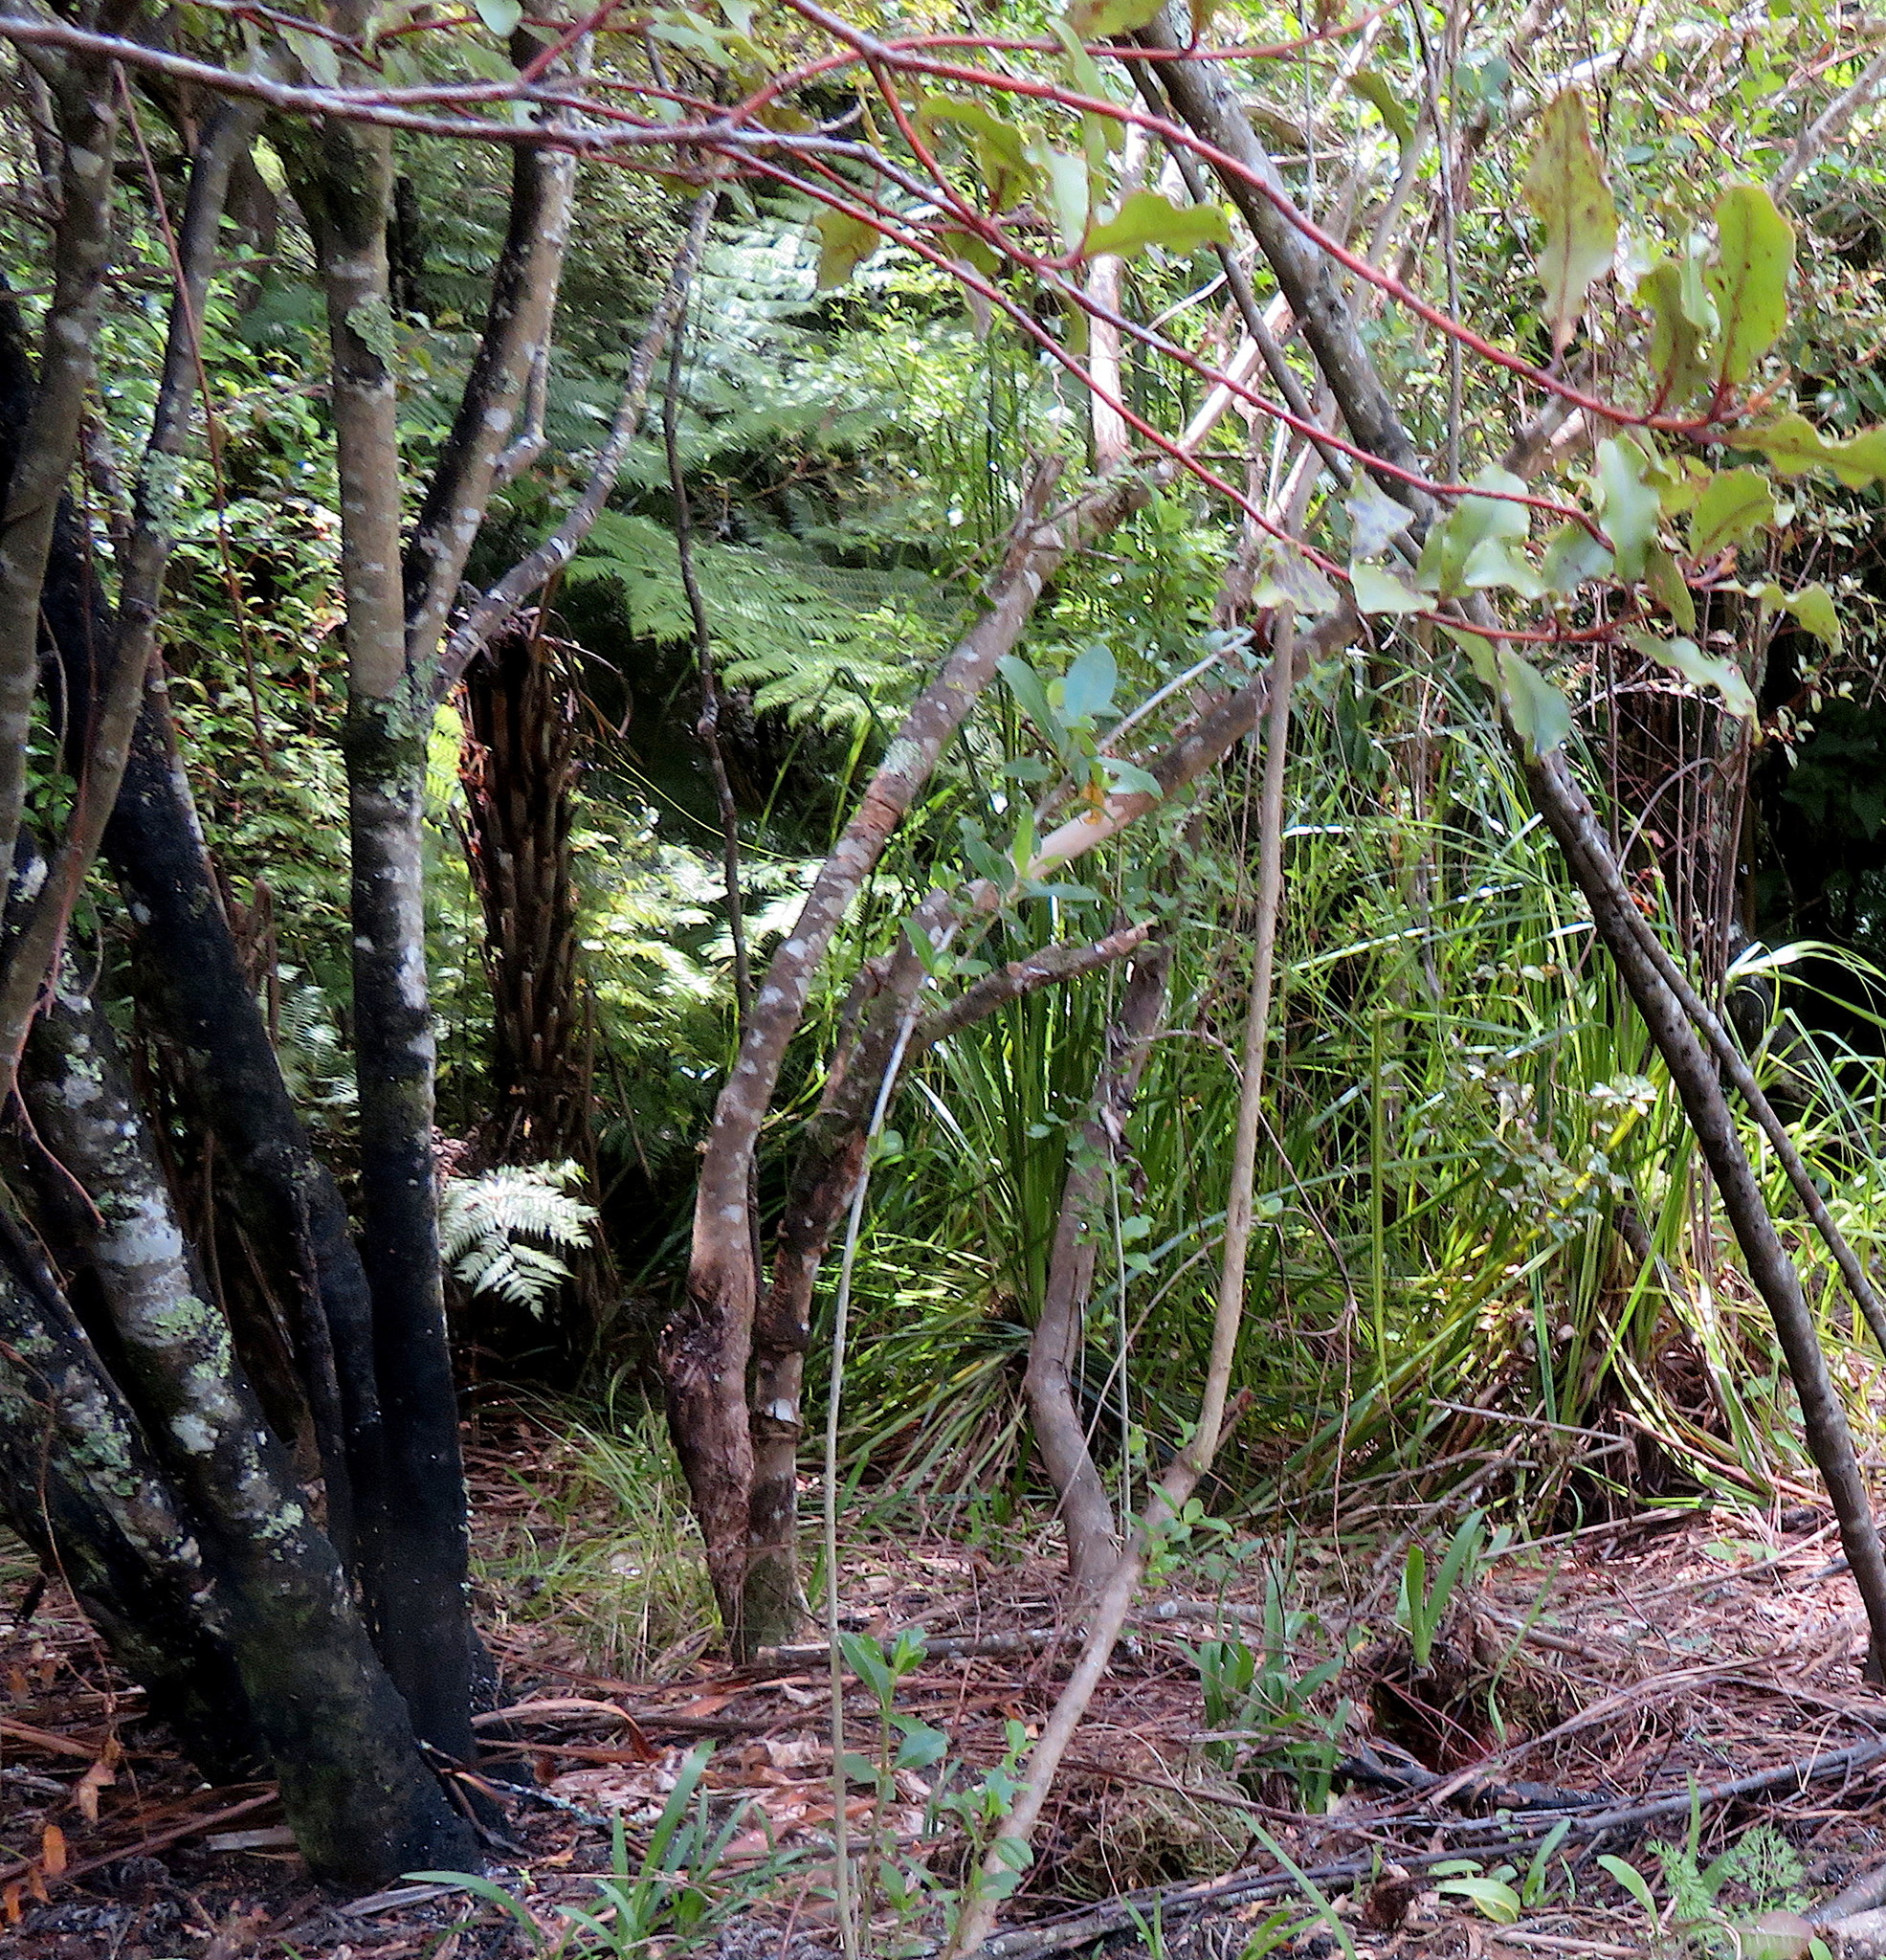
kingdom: Plantae
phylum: Tracheophyta
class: Liliopsida
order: Asparagales
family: Amaryllidaceae
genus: Agapanthus
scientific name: Agapanthus praecox
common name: African-lily
